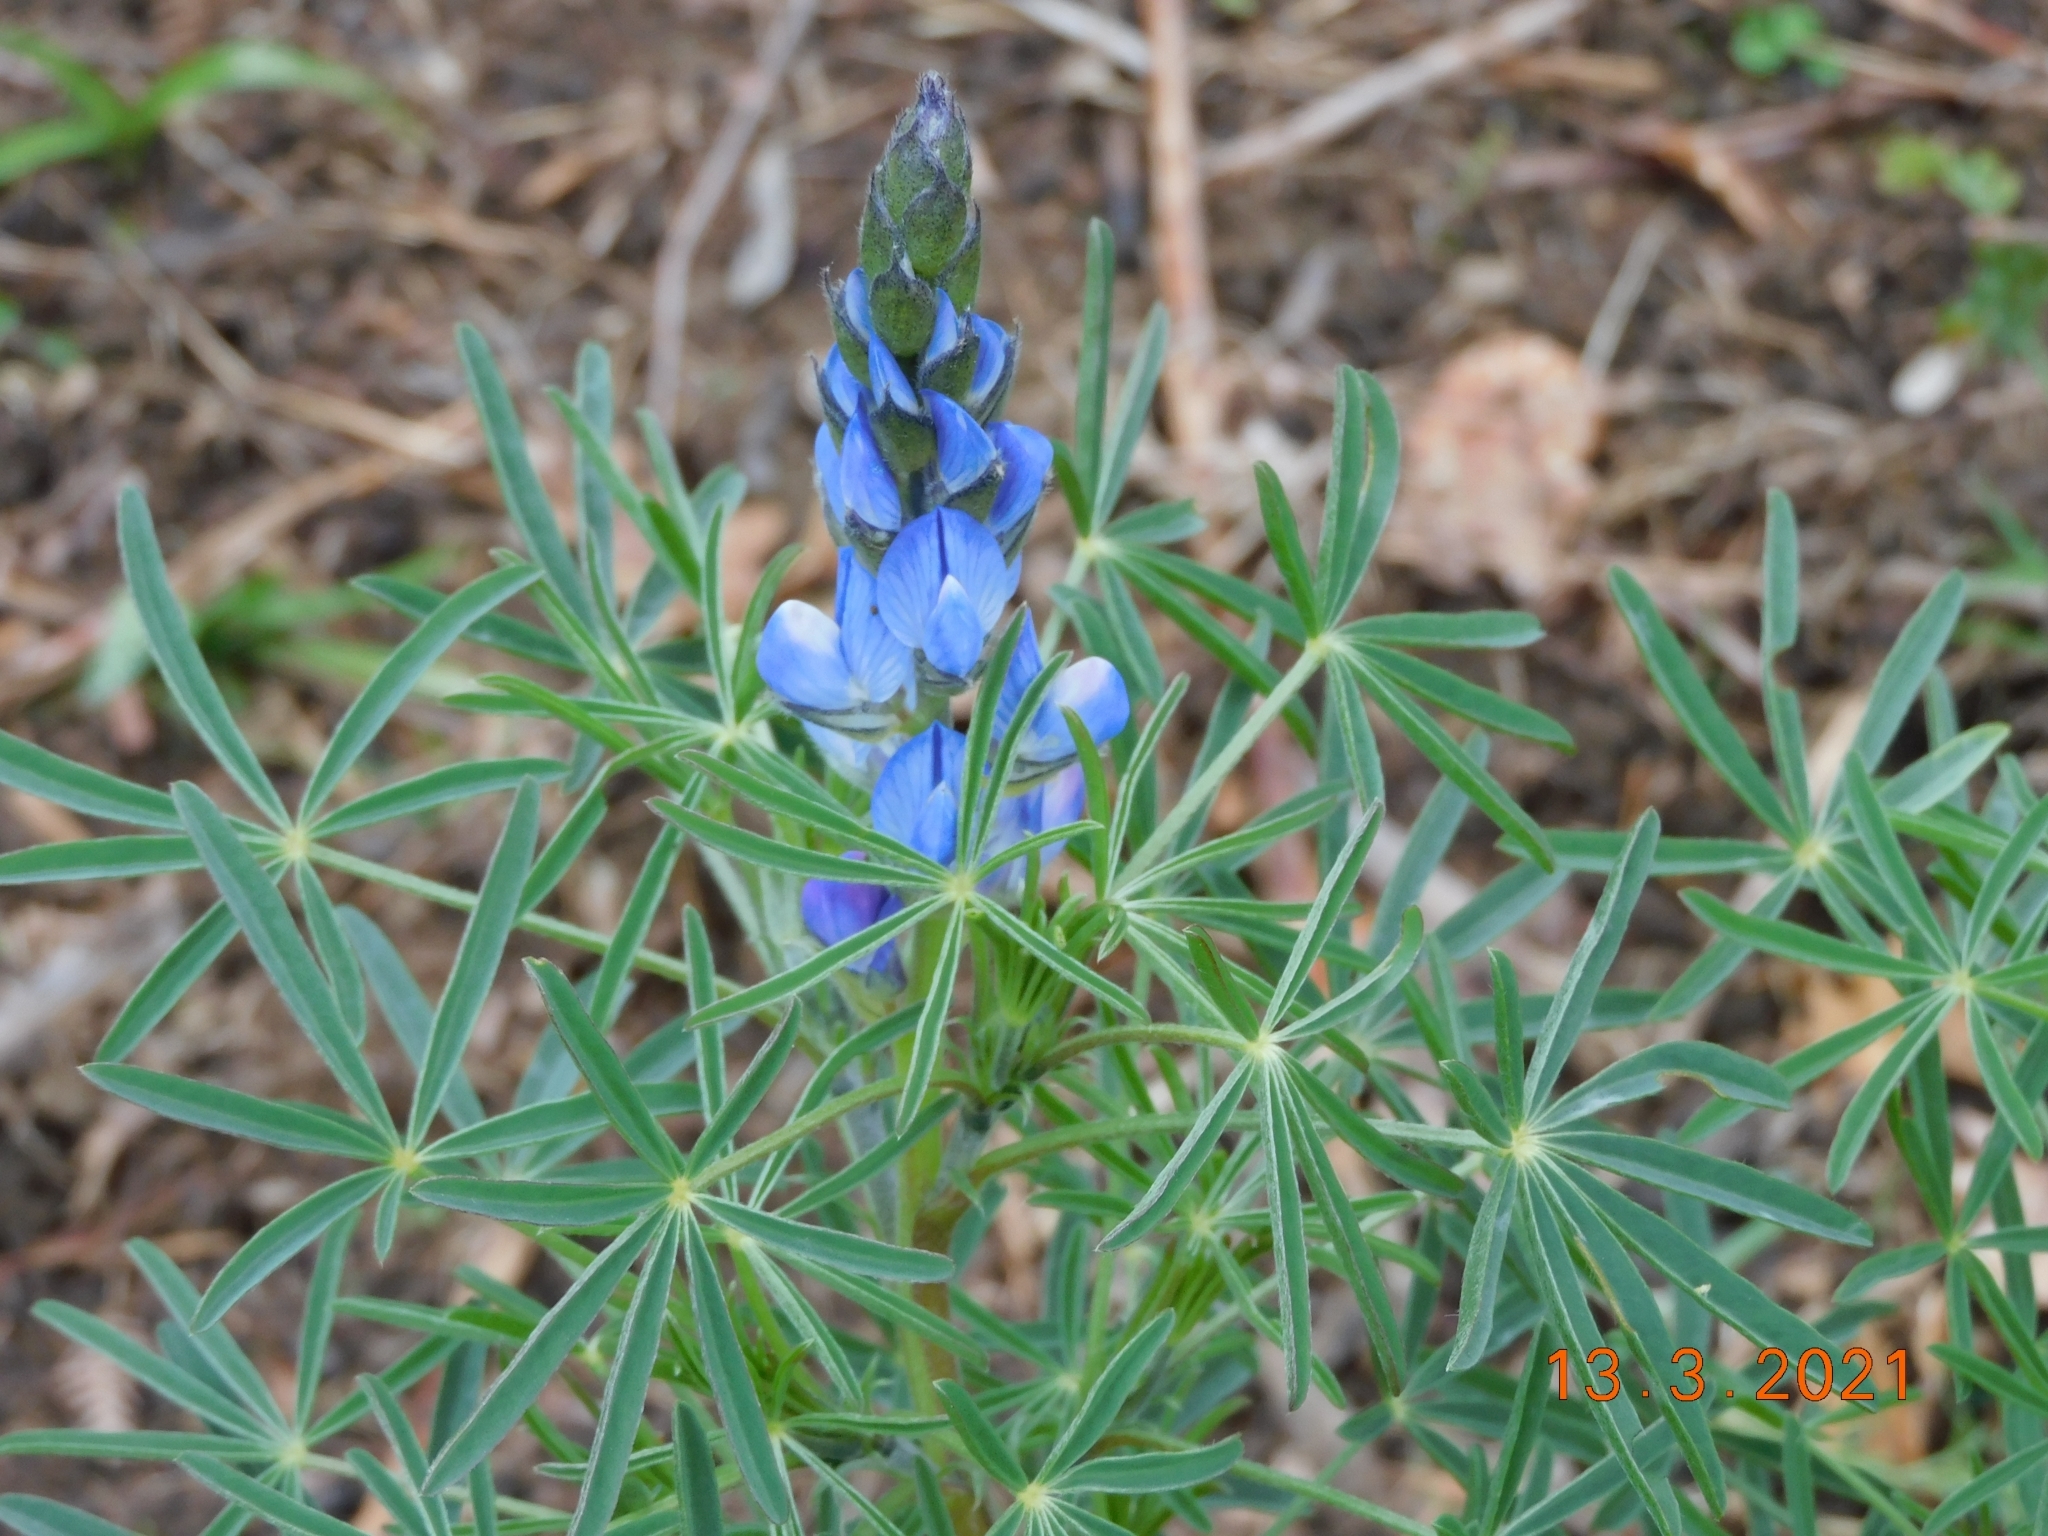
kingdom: Plantae
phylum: Tracheophyta
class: Magnoliopsida
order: Fabales
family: Fabaceae
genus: Lupinus
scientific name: Lupinus angustifolius
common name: Narrow-leaved lupin
